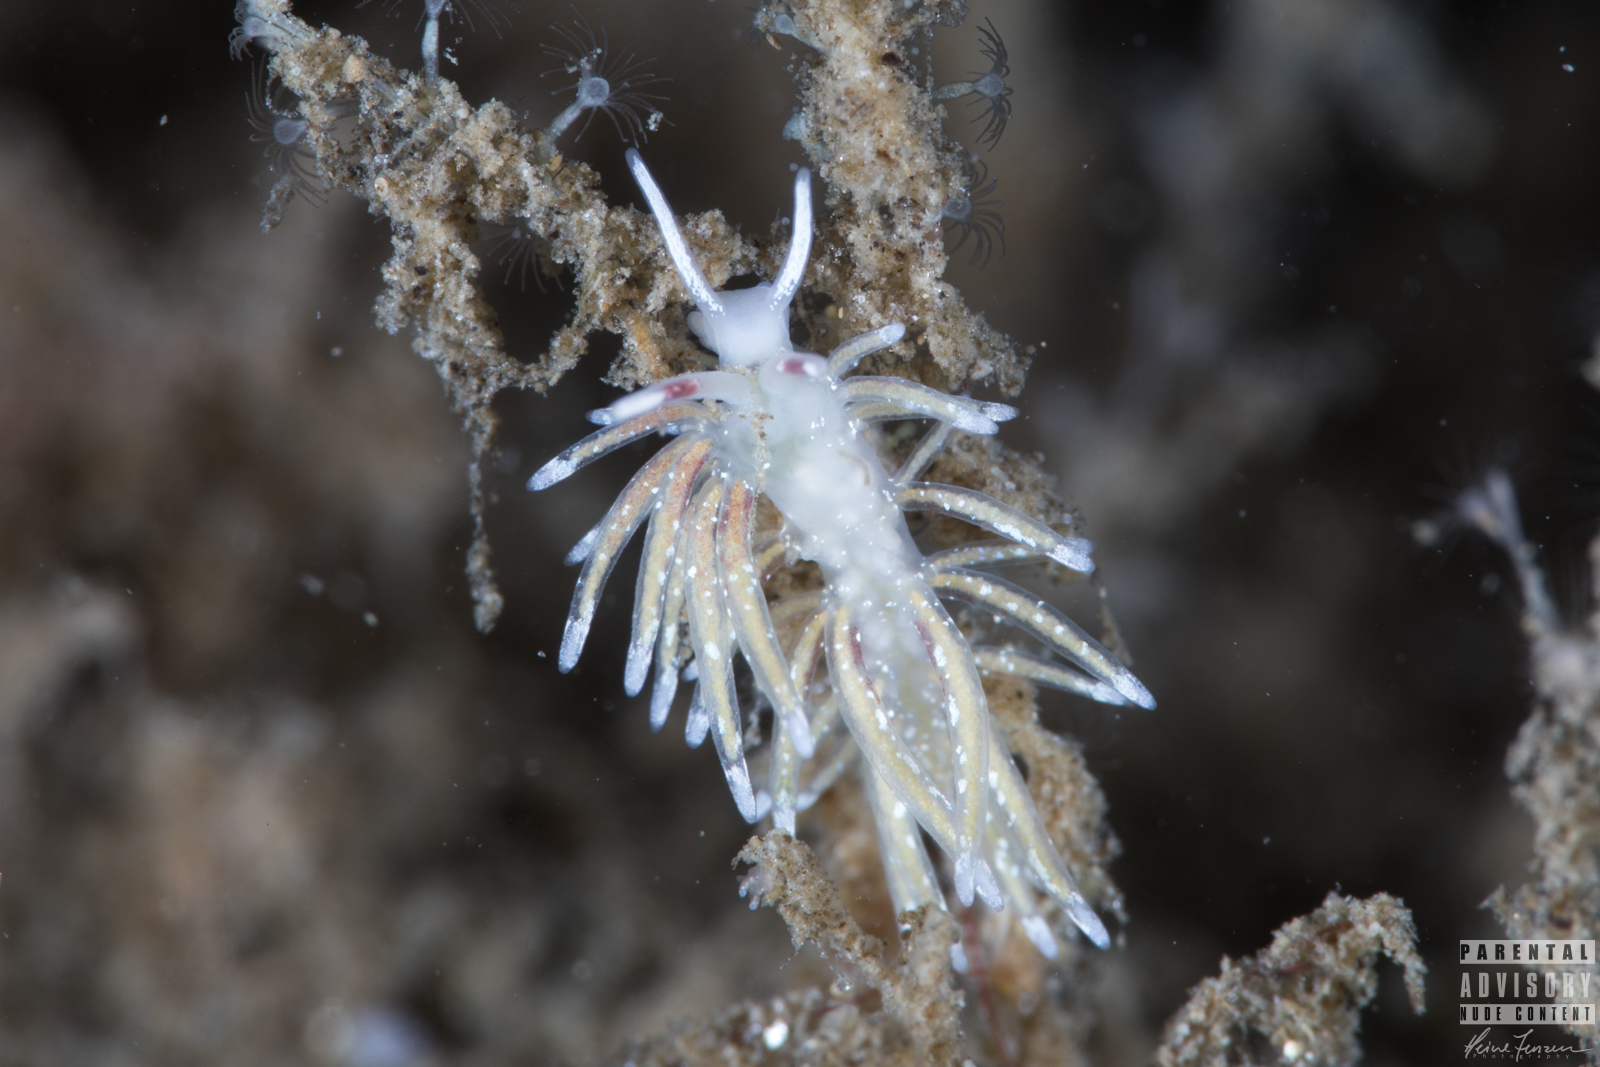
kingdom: Animalia
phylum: Mollusca
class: Gastropoda
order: Nudibranchia
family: Trinchesiidae
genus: Rubramoena
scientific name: Rubramoena rubescens
